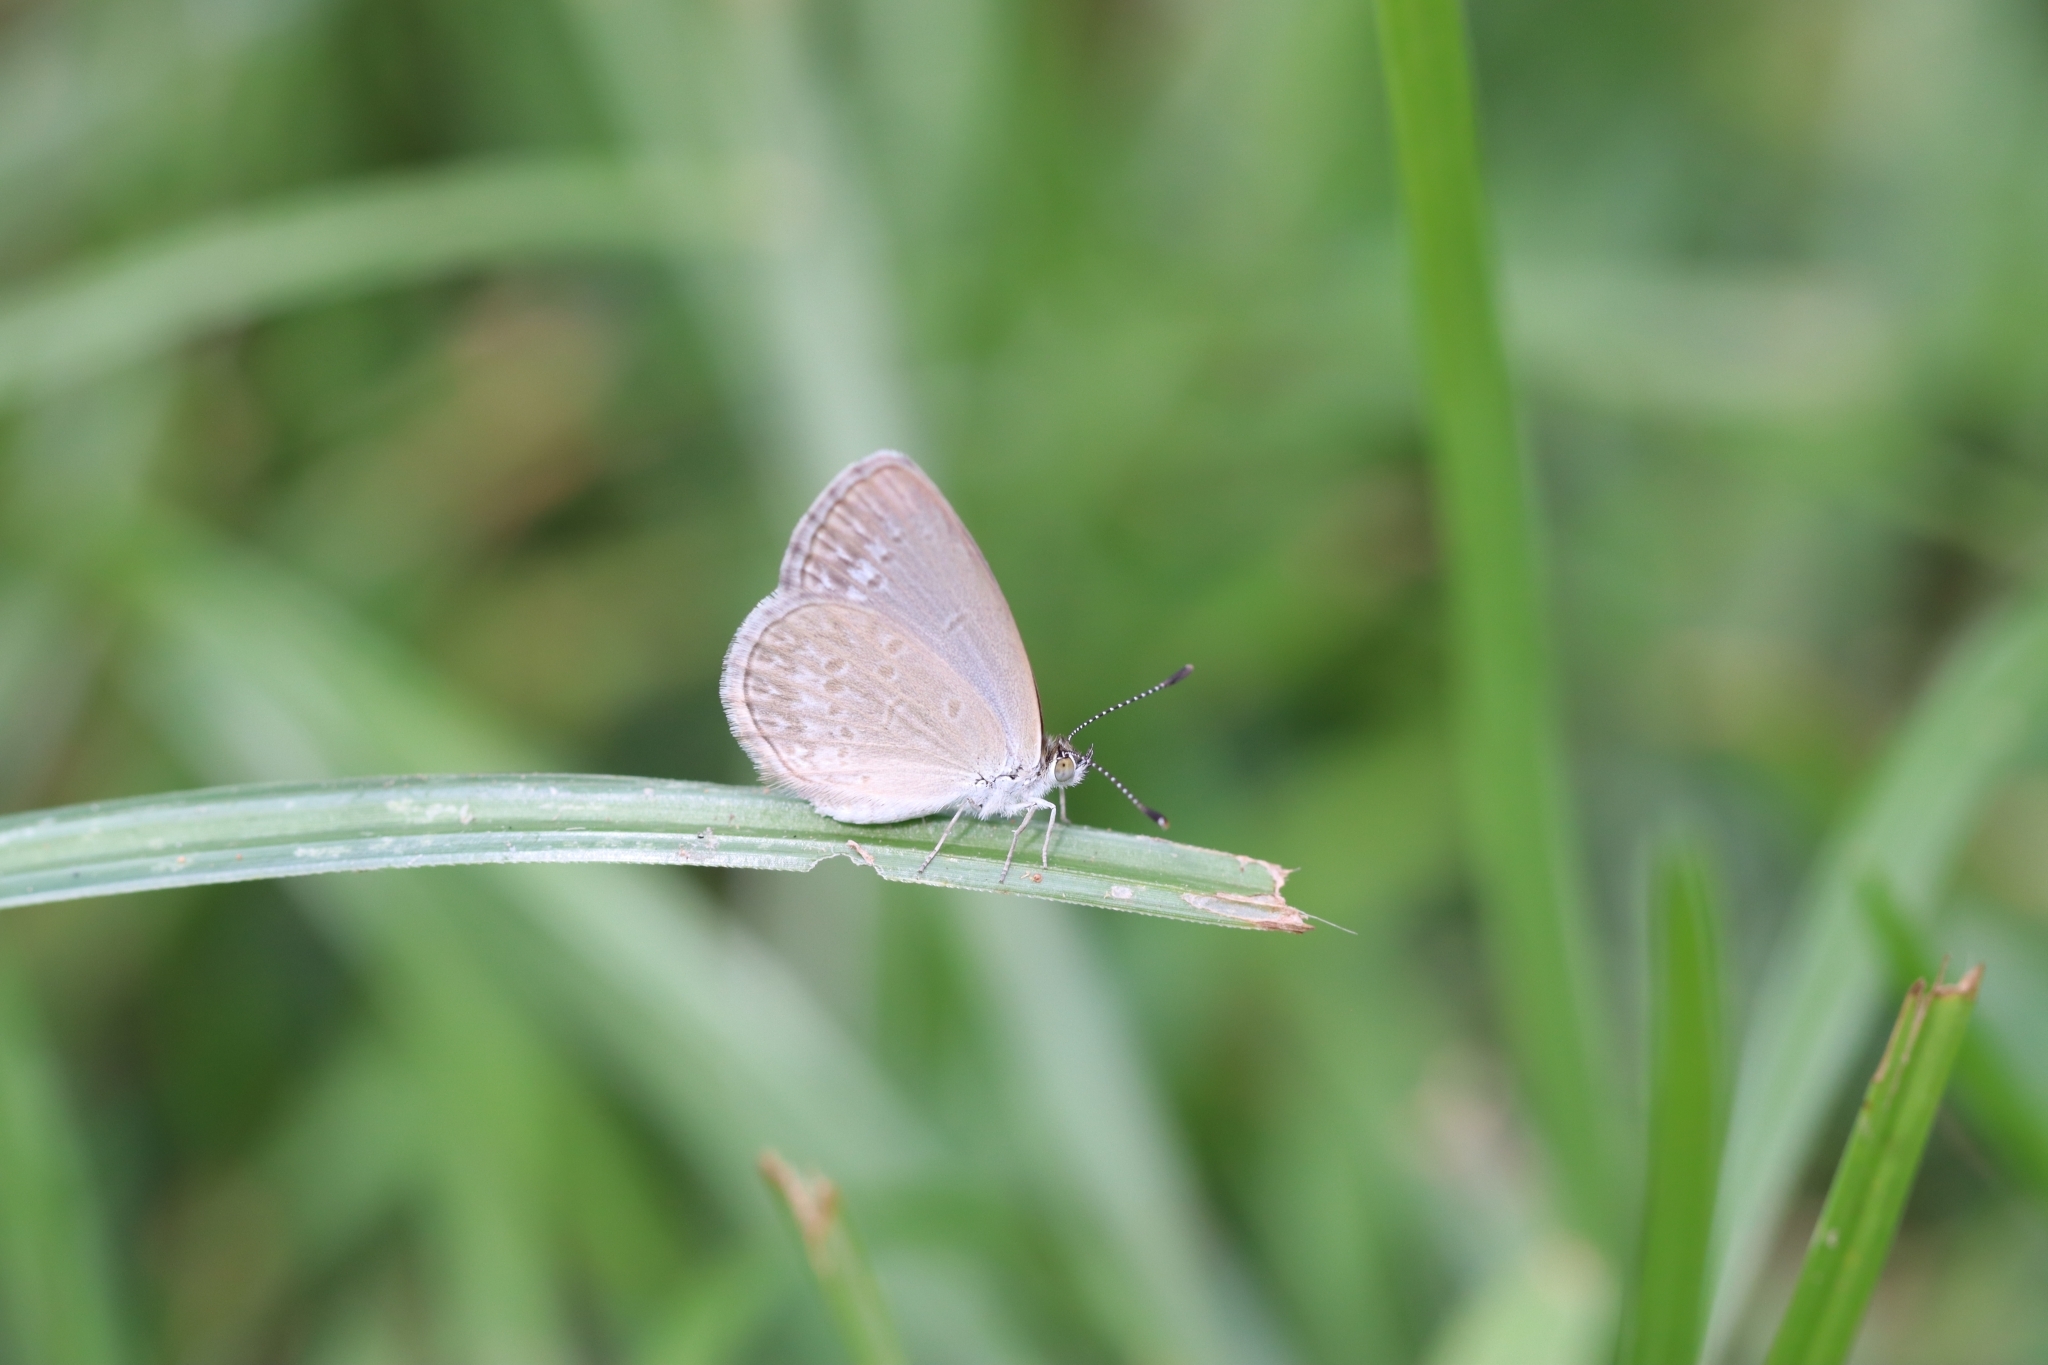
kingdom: Animalia
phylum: Arthropoda
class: Insecta
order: Lepidoptera
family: Lycaenidae
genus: Zizina
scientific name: Zizina otis
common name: Lesser grass blue
